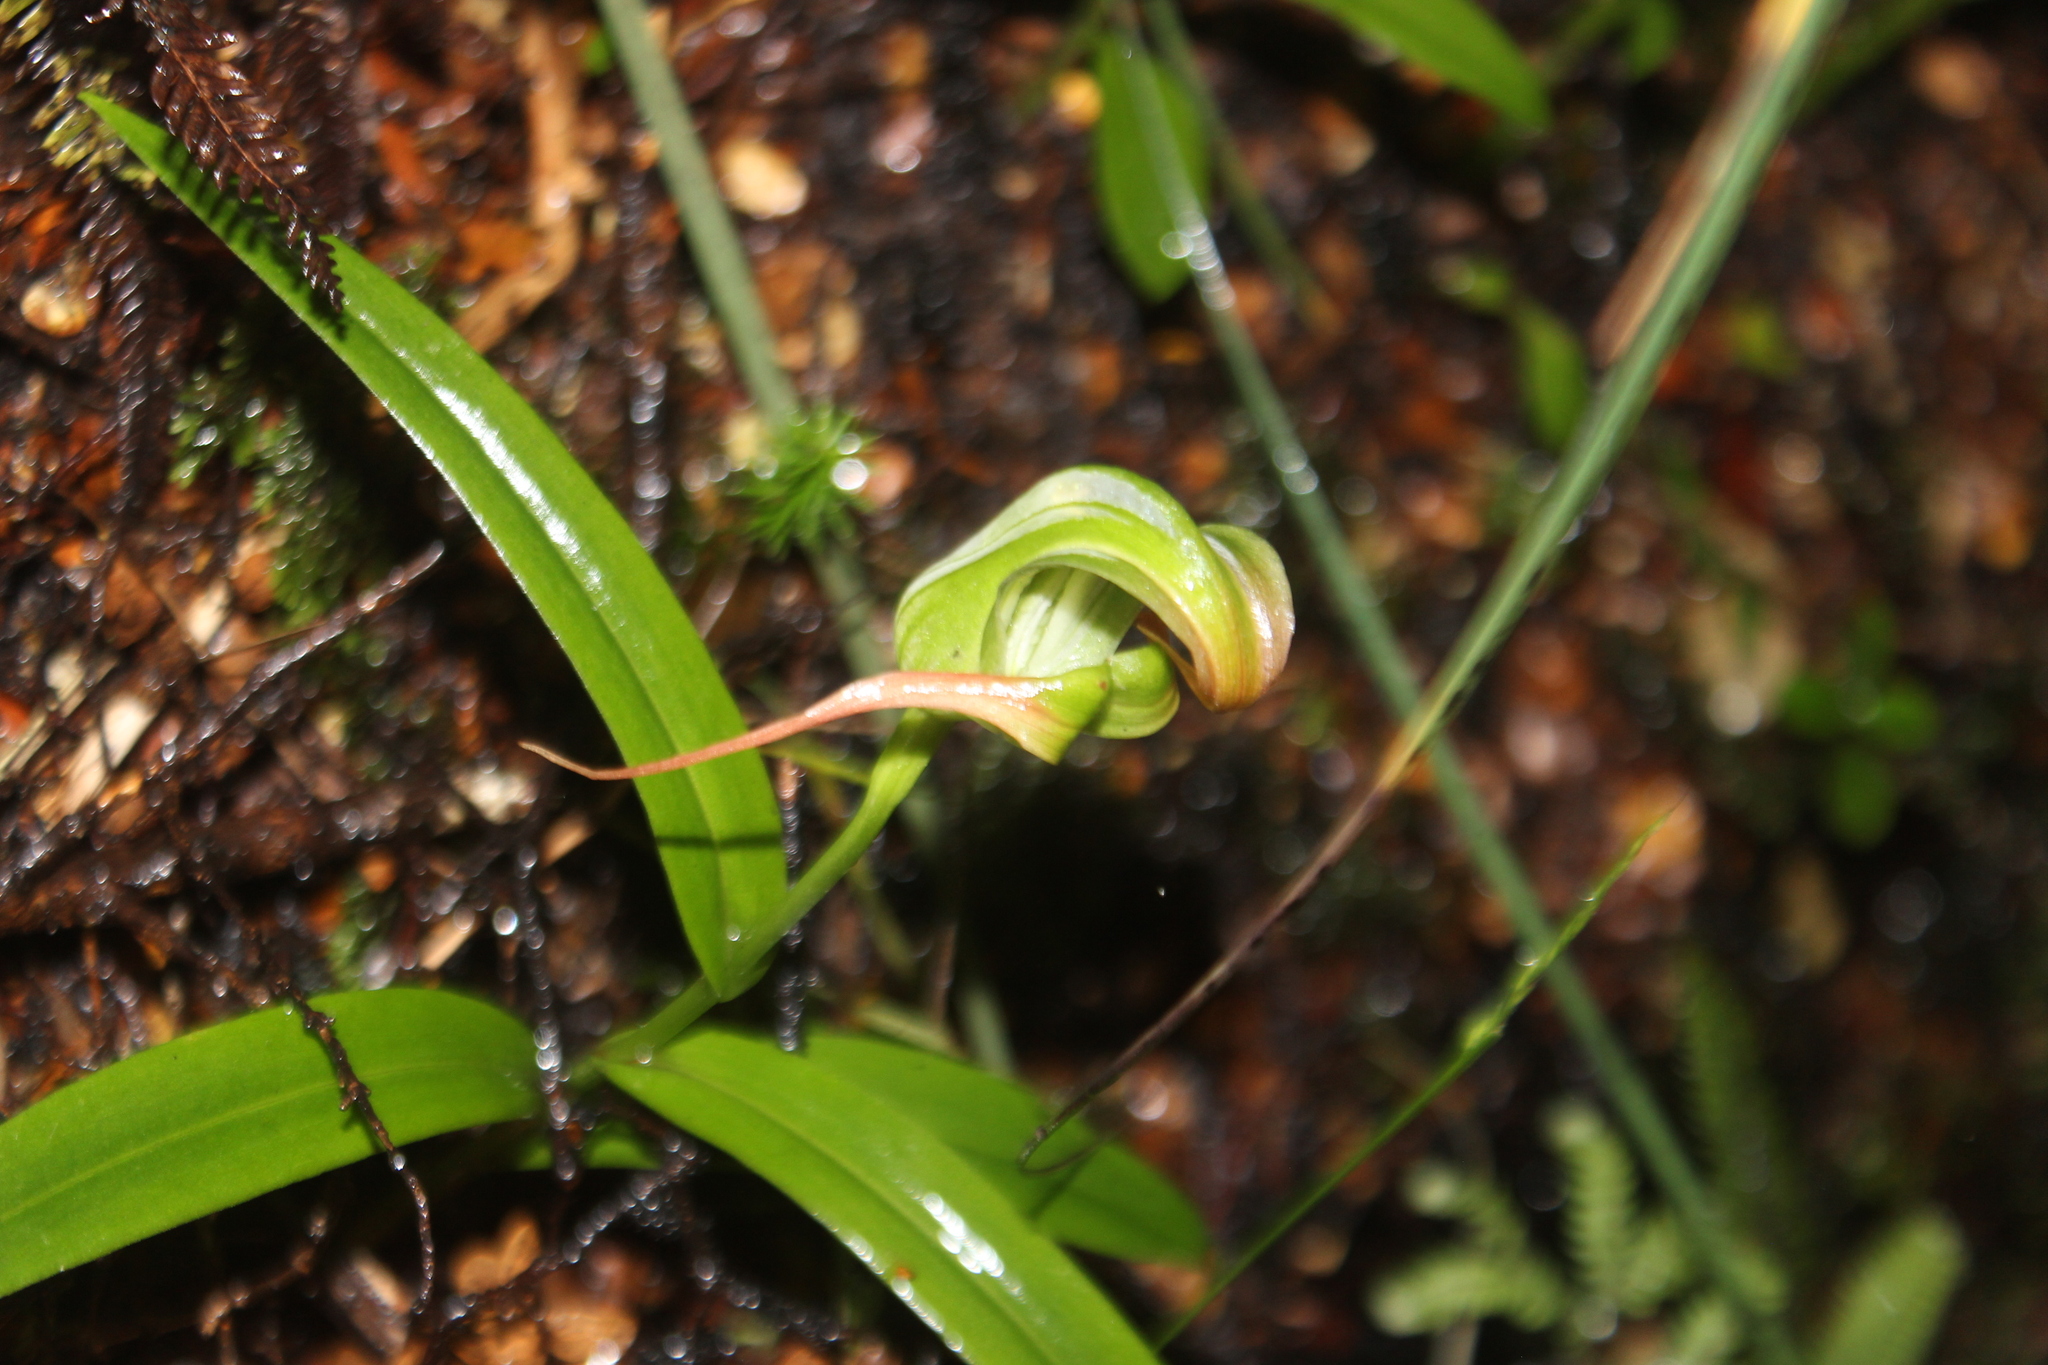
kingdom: Plantae
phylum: Tracheophyta
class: Liliopsida
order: Asparagales
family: Orchidaceae
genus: Pterostylis
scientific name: Pterostylis patens
